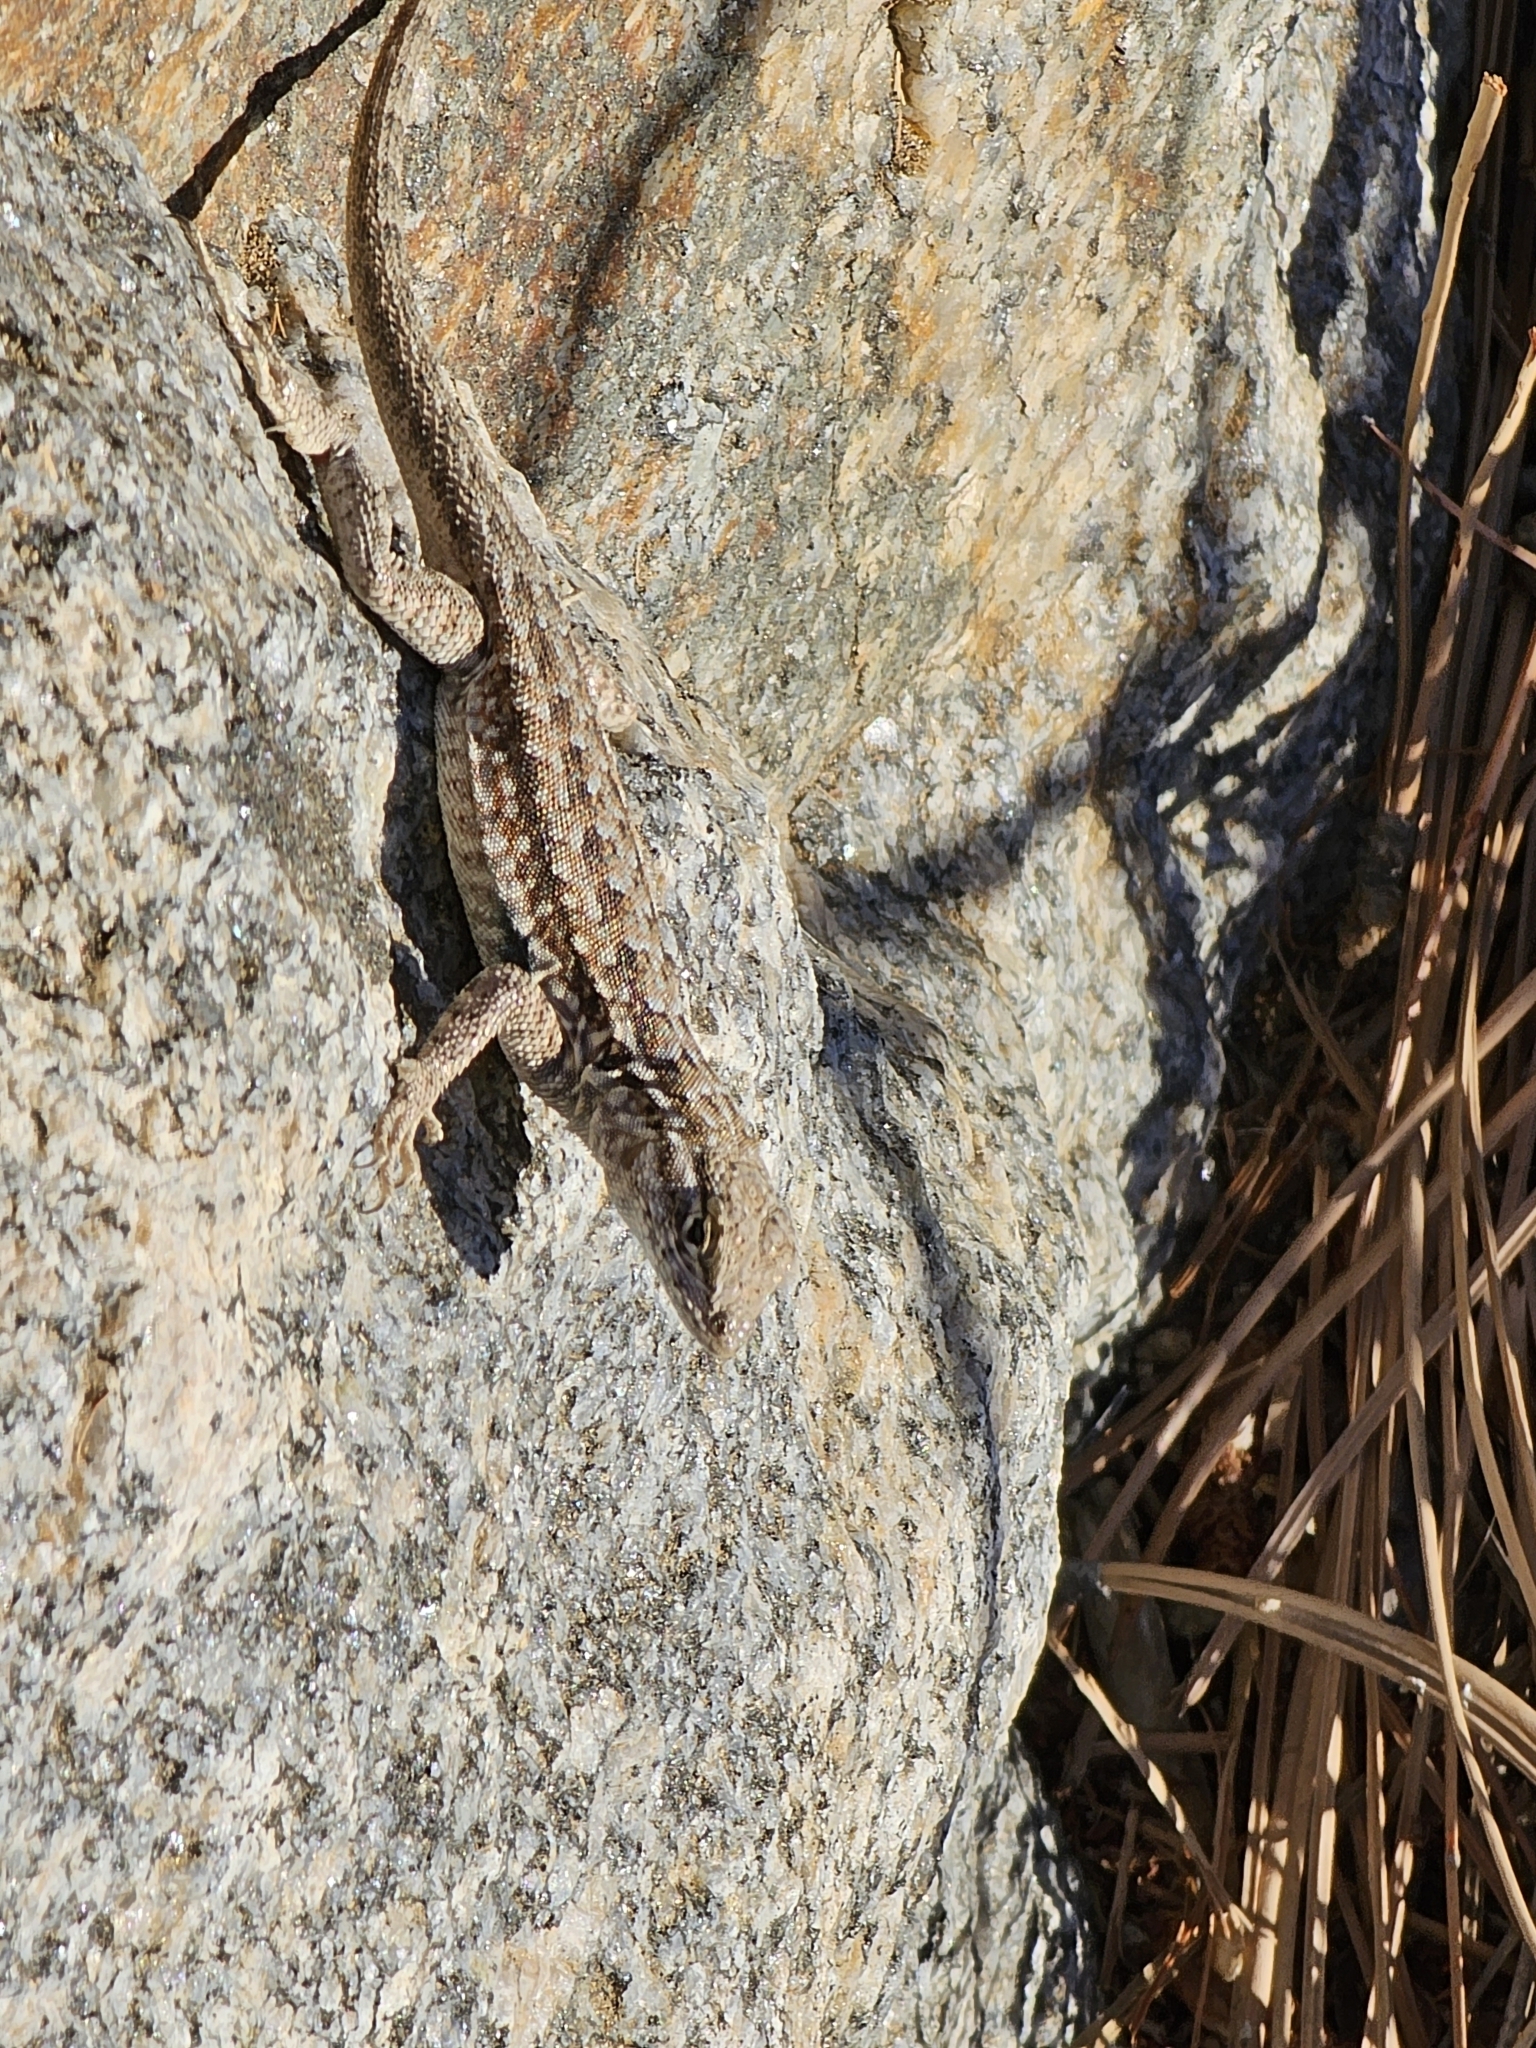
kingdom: Animalia
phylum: Chordata
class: Squamata
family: Phrynosomatidae
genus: Uta
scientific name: Uta stansburiana
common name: Side-blotched lizard
